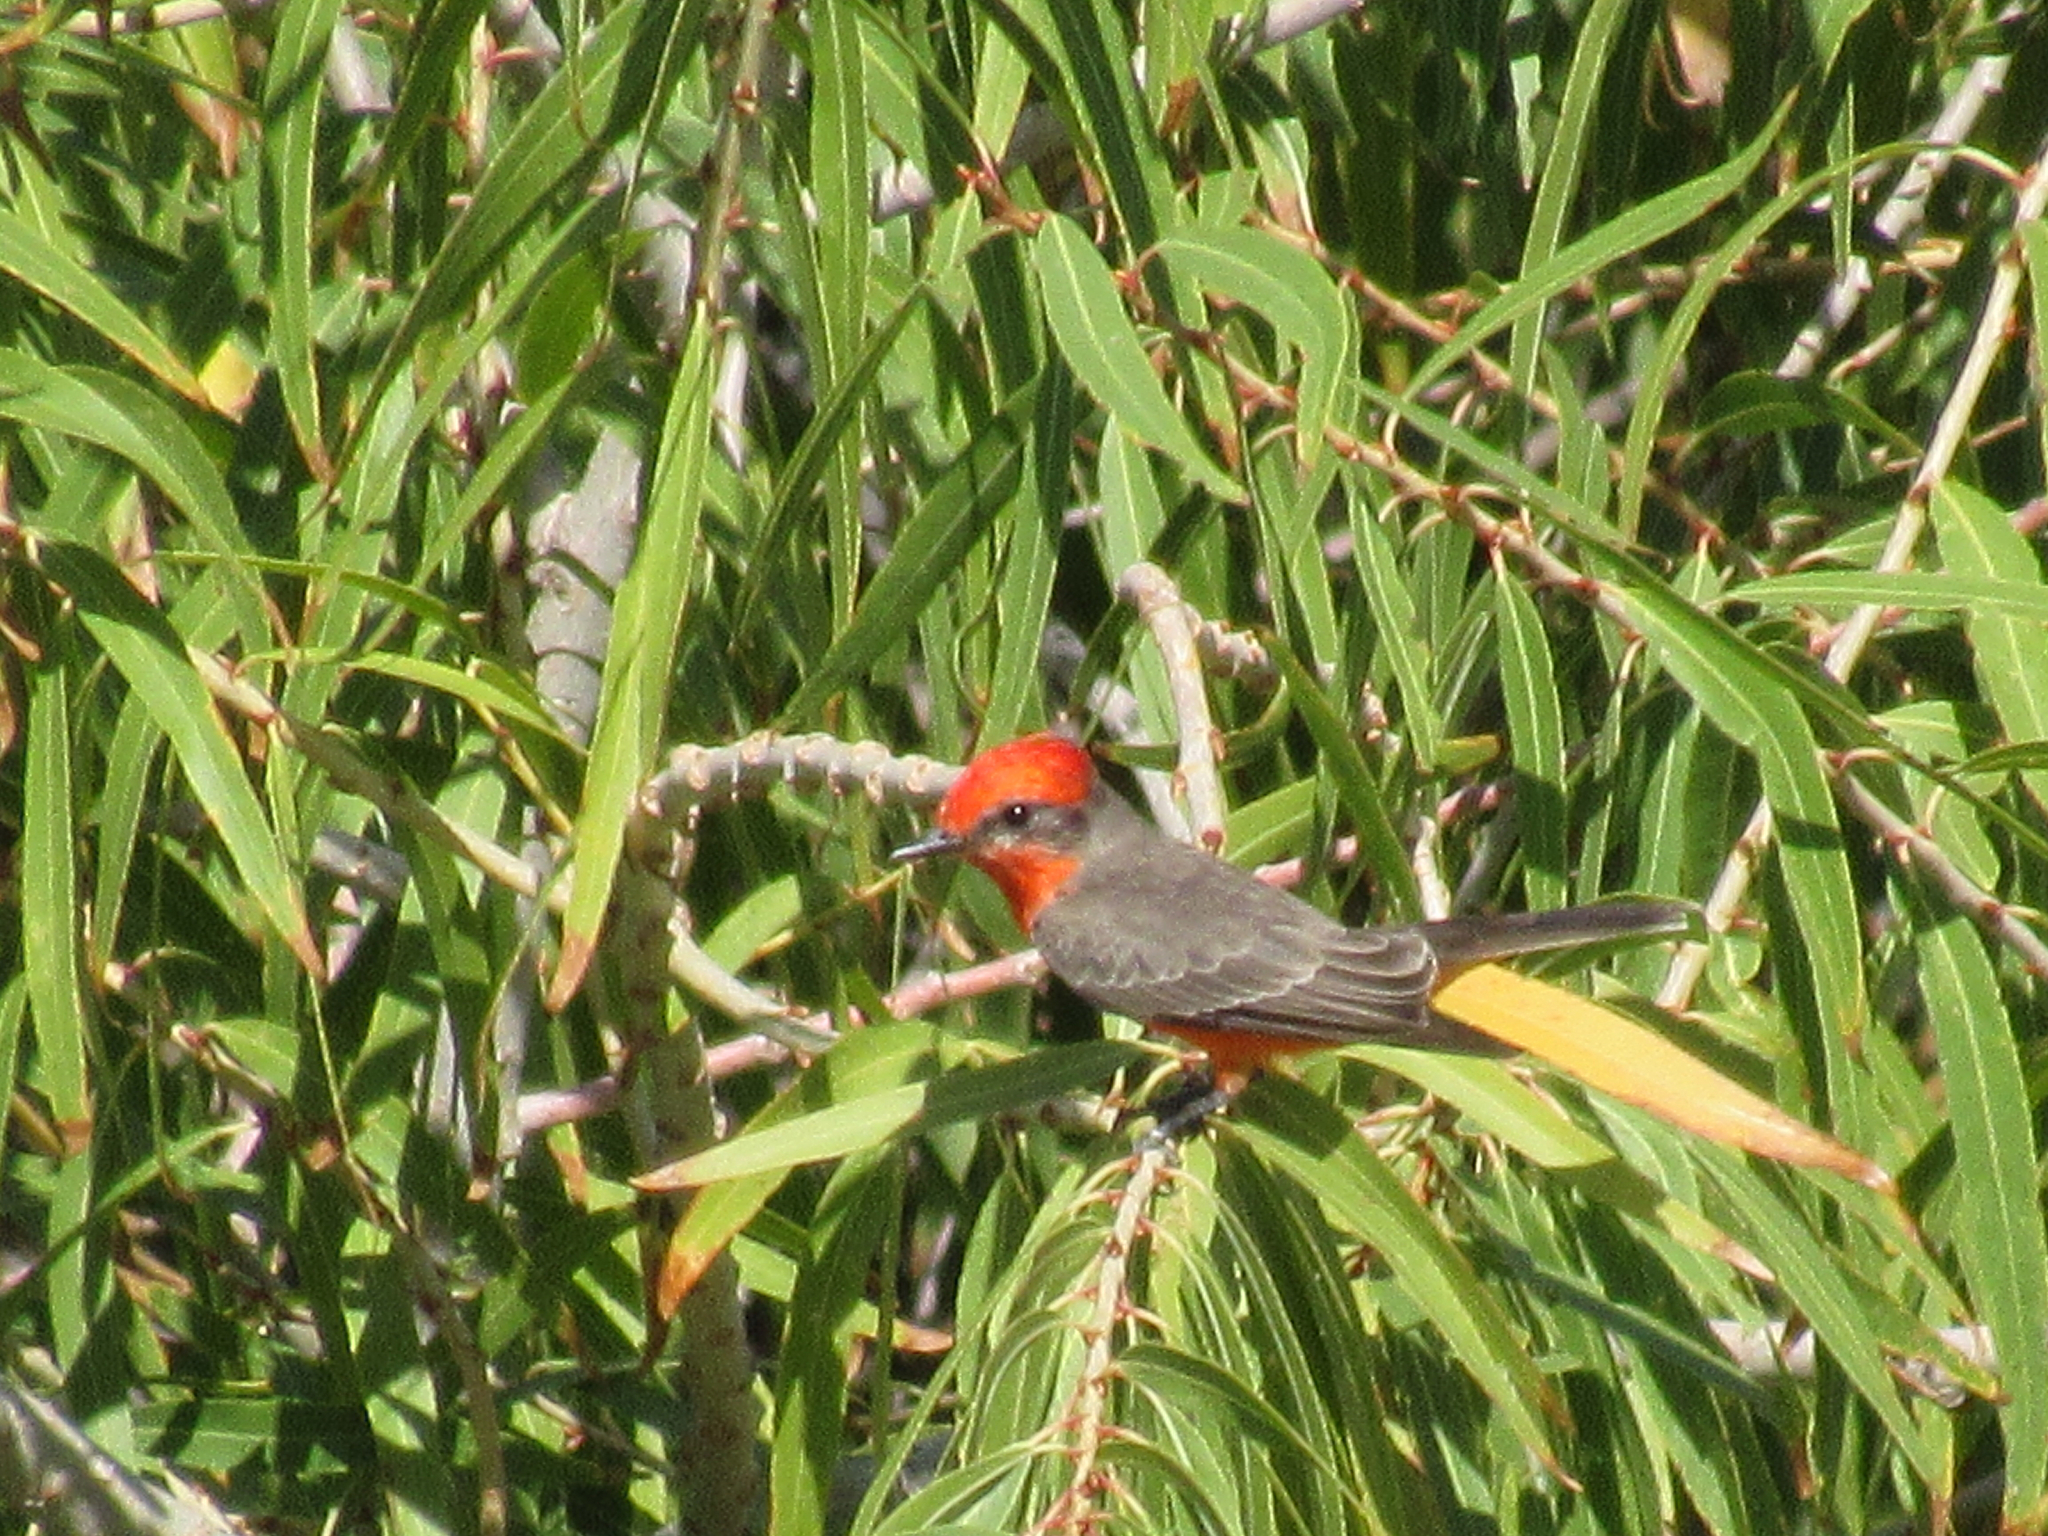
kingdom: Animalia
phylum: Chordata
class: Aves
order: Passeriformes
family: Tyrannidae
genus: Pyrocephalus
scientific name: Pyrocephalus rubinus
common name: Vermilion flycatcher
